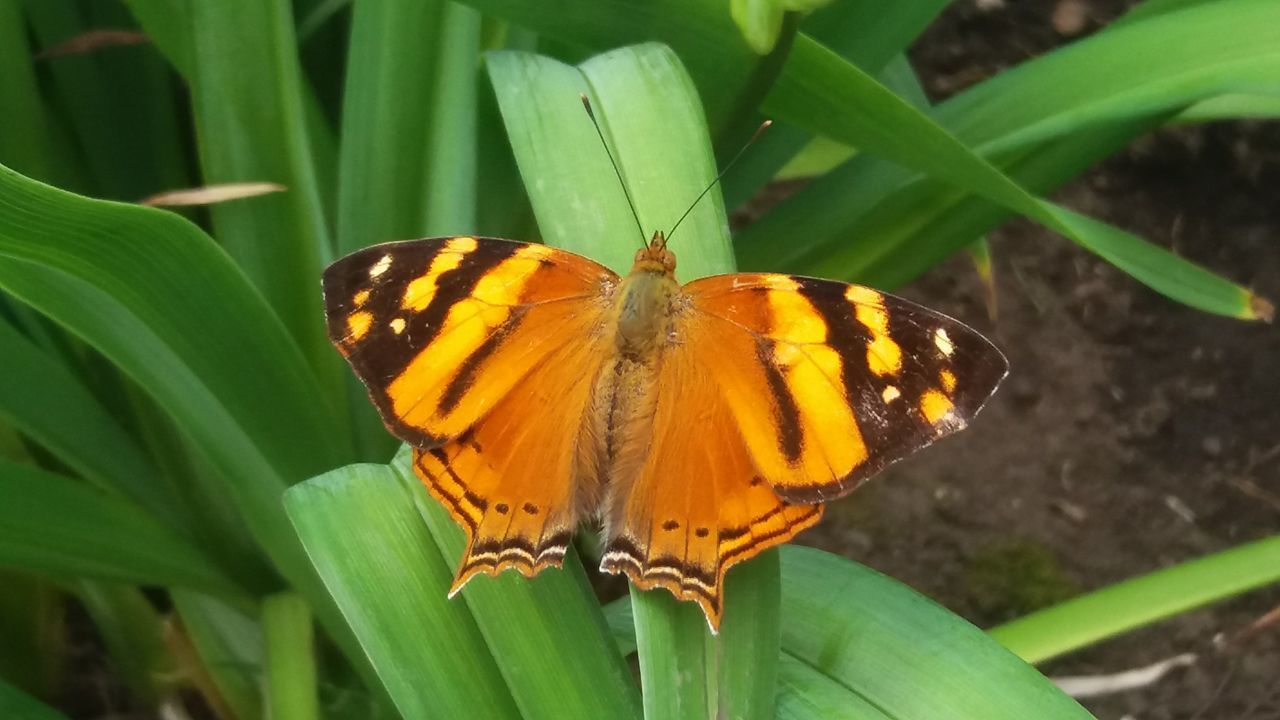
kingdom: Animalia
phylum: Arthropoda
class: Insecta
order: Lepidoptera
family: Nymphalidae
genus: Hypanartia
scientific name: Hypanartia lethe
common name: Orange mapwing
